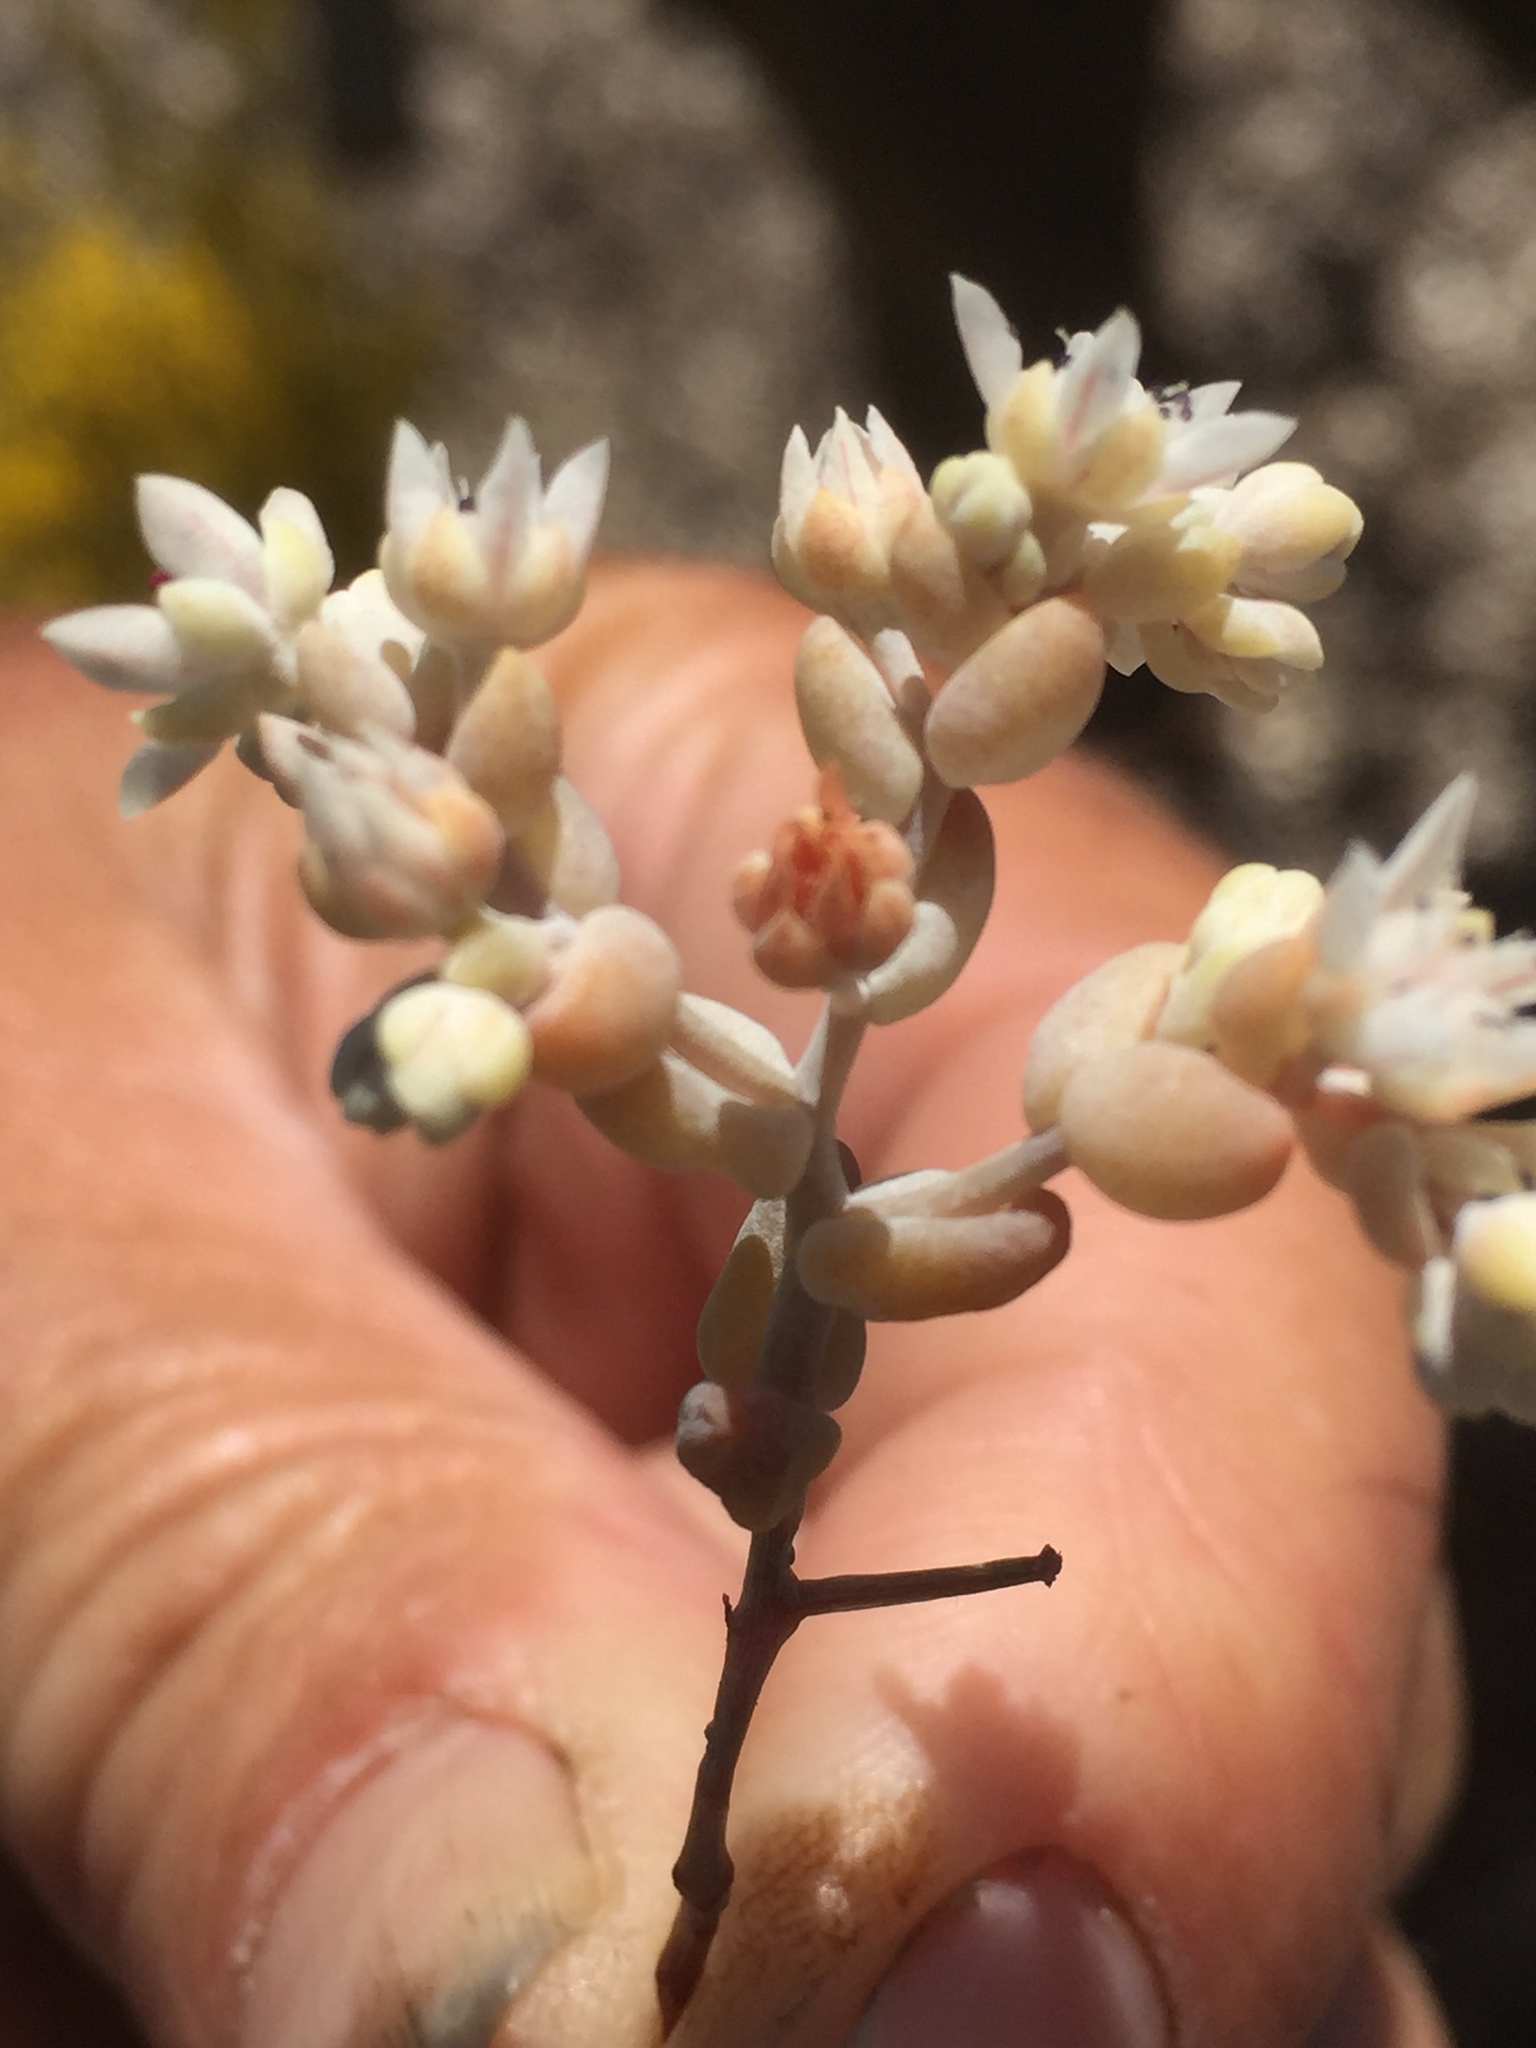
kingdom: Plantae
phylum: Tracheophyta
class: Magnoliopsida
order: Saxifragales
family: Crassulaceae
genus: Sedum
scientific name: Sedum pedicellatum
